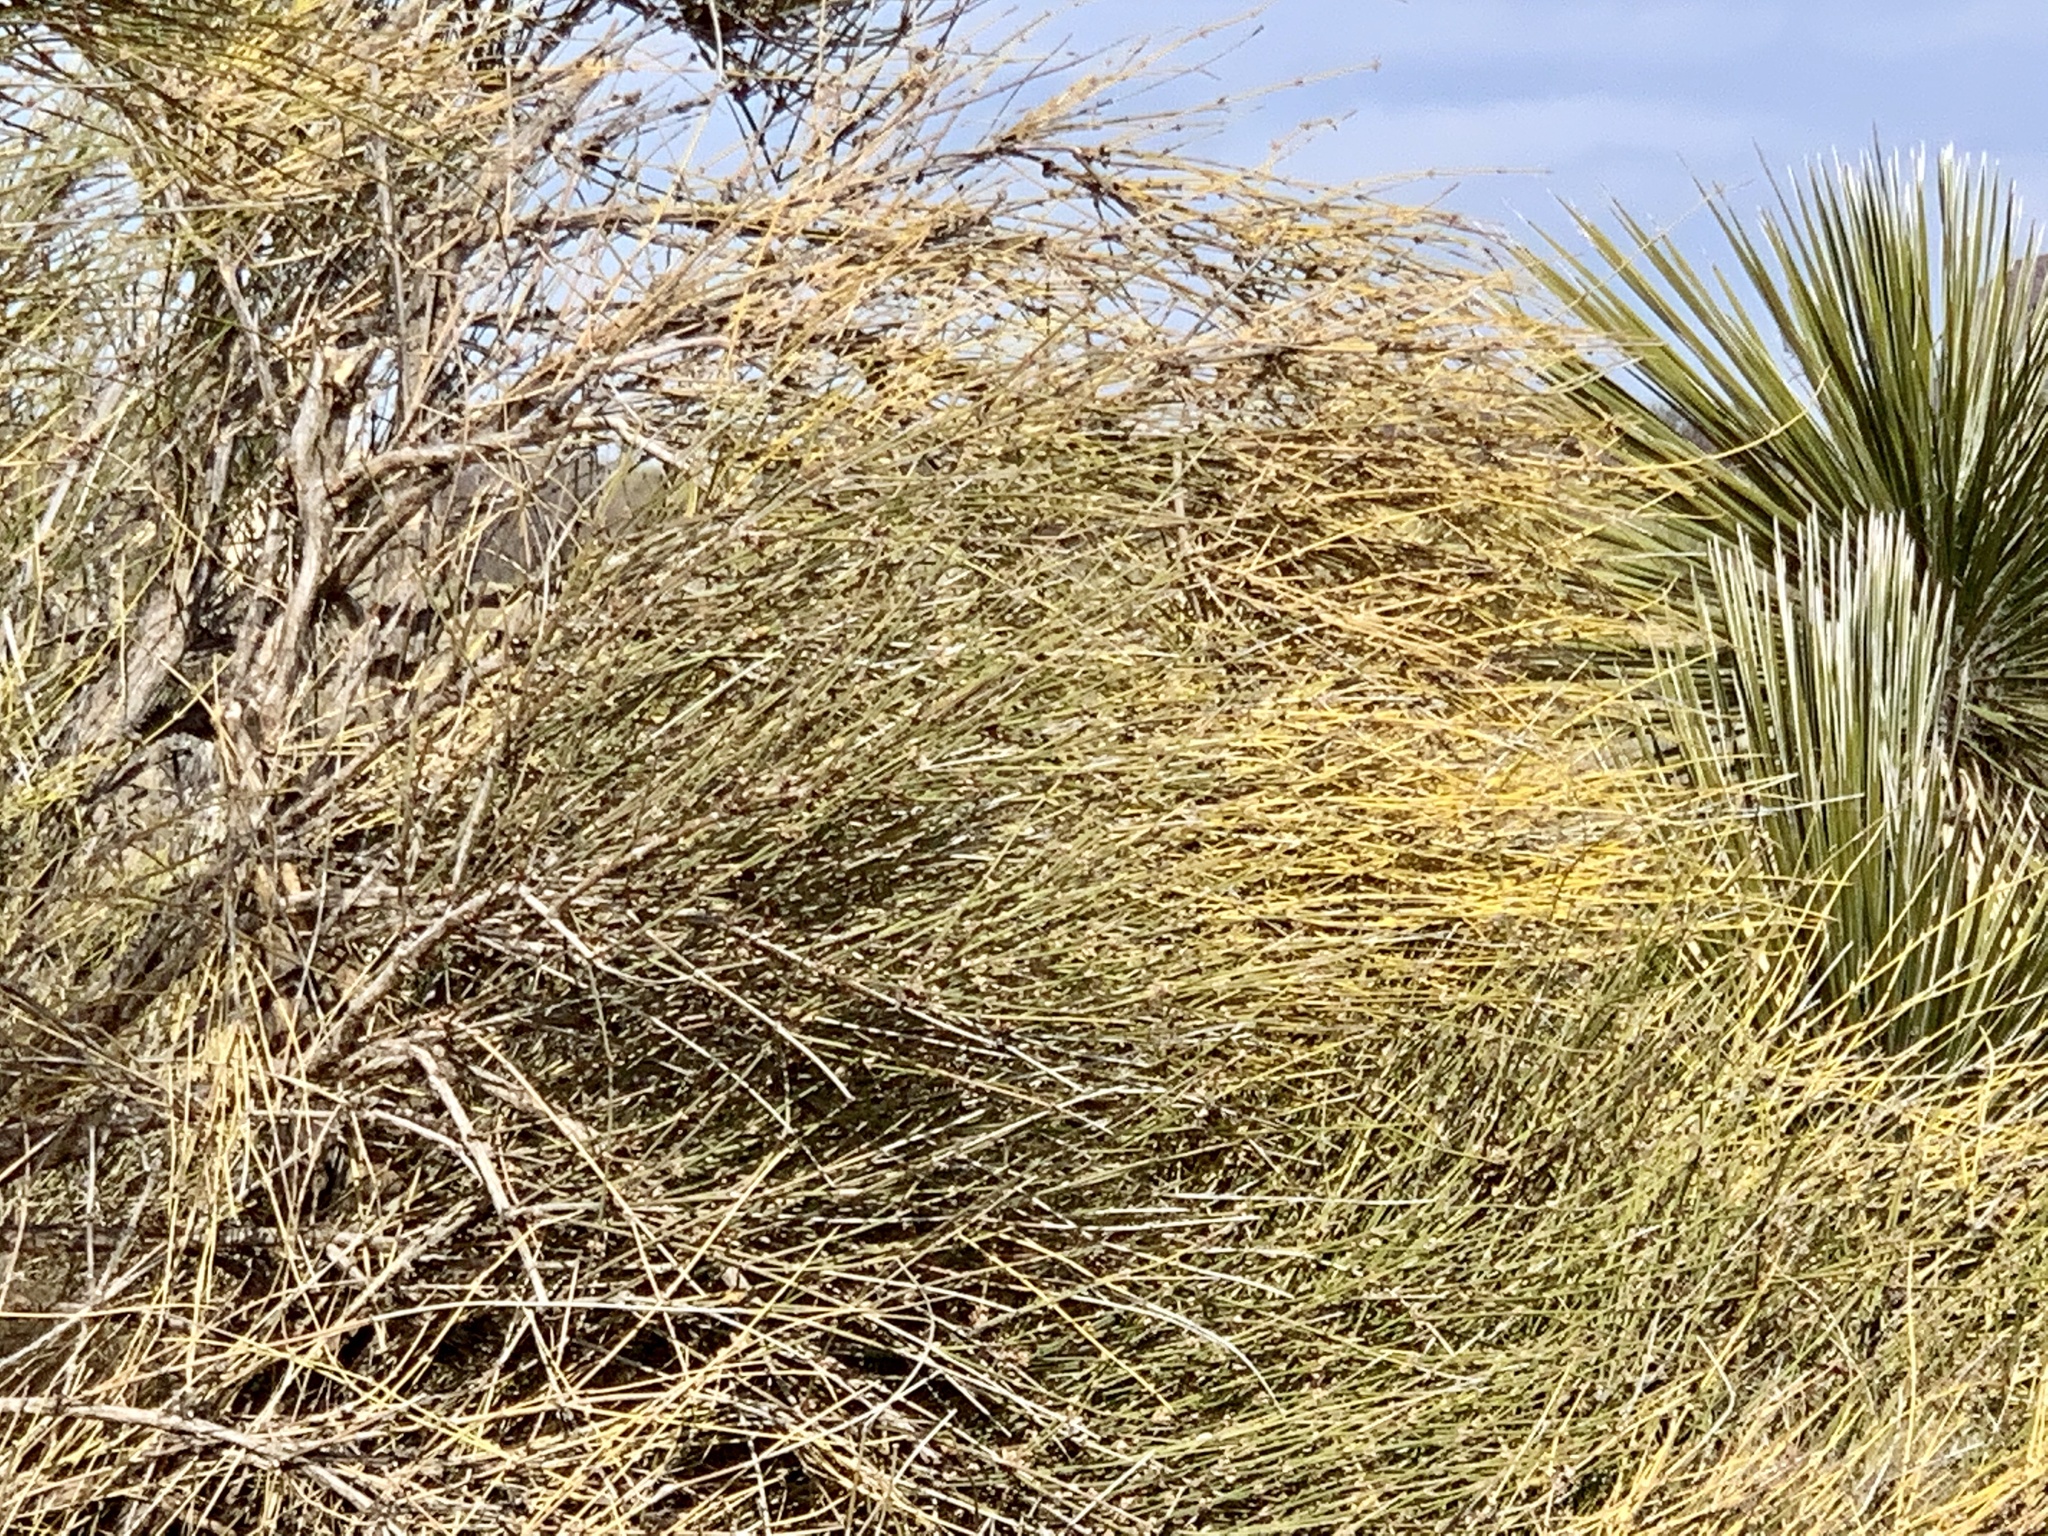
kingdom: Plantae
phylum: Tracheophyta
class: Gnetopsida
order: Ephedrales
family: Ephedraceae
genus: Ephedra
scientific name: Ephedra trifurca
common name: Mexican-tea
